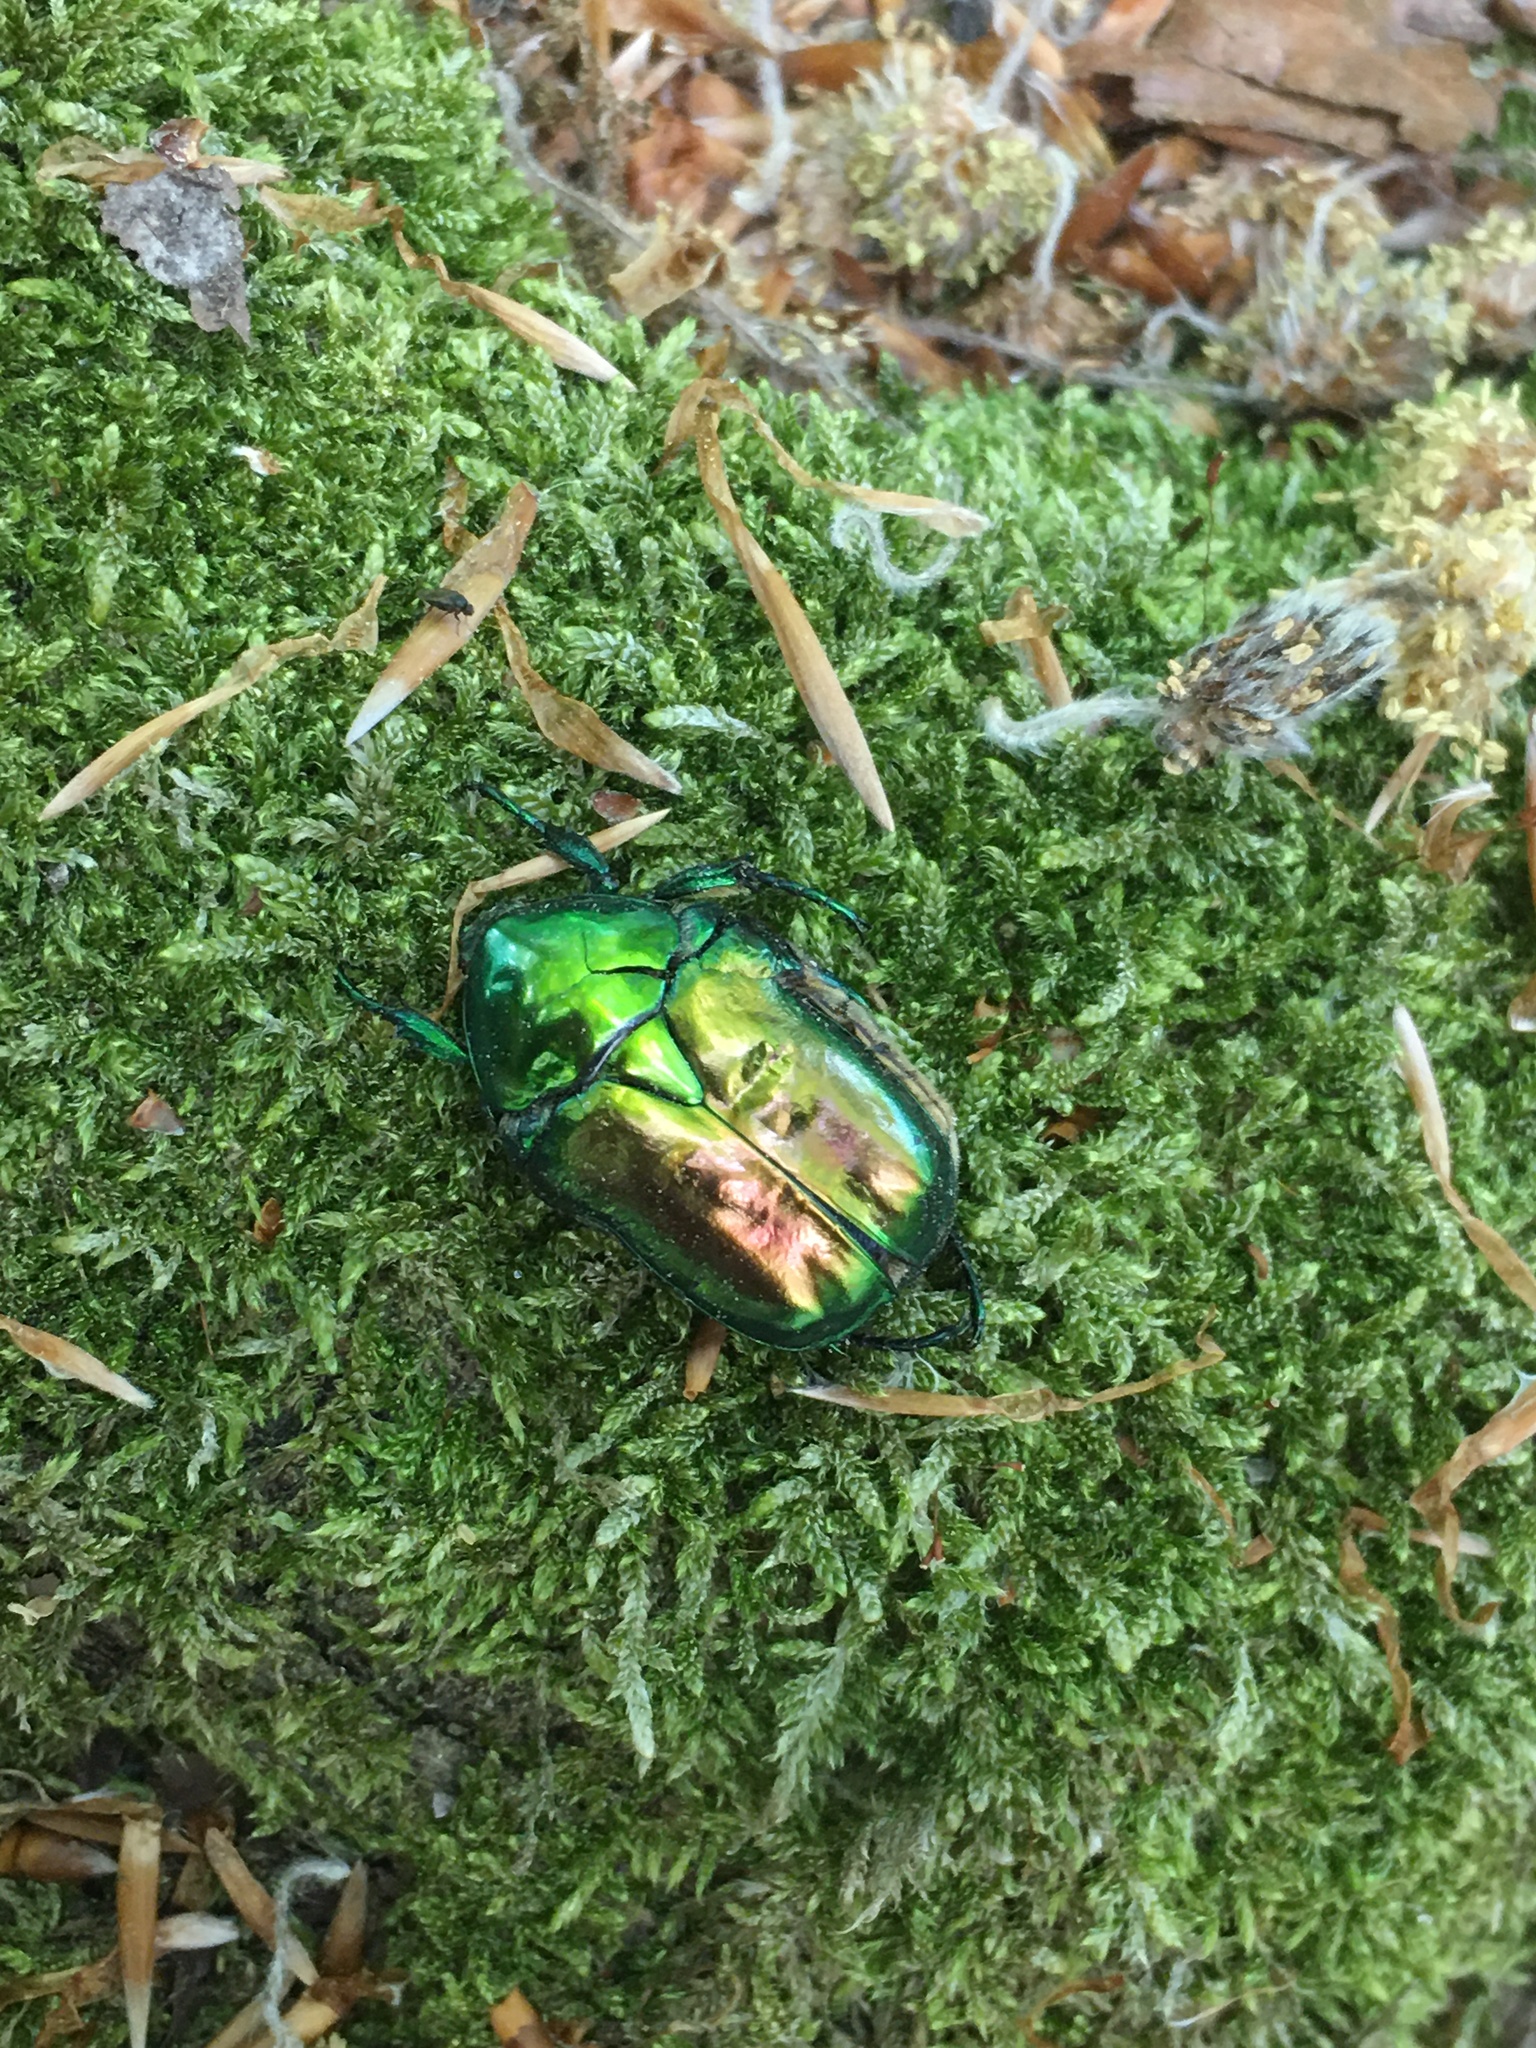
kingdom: Animalia
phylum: Arthropoda
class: Insecta
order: Coleoptera
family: Scarabaeidae
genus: Protaetia
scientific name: Protaetia speciosissima
